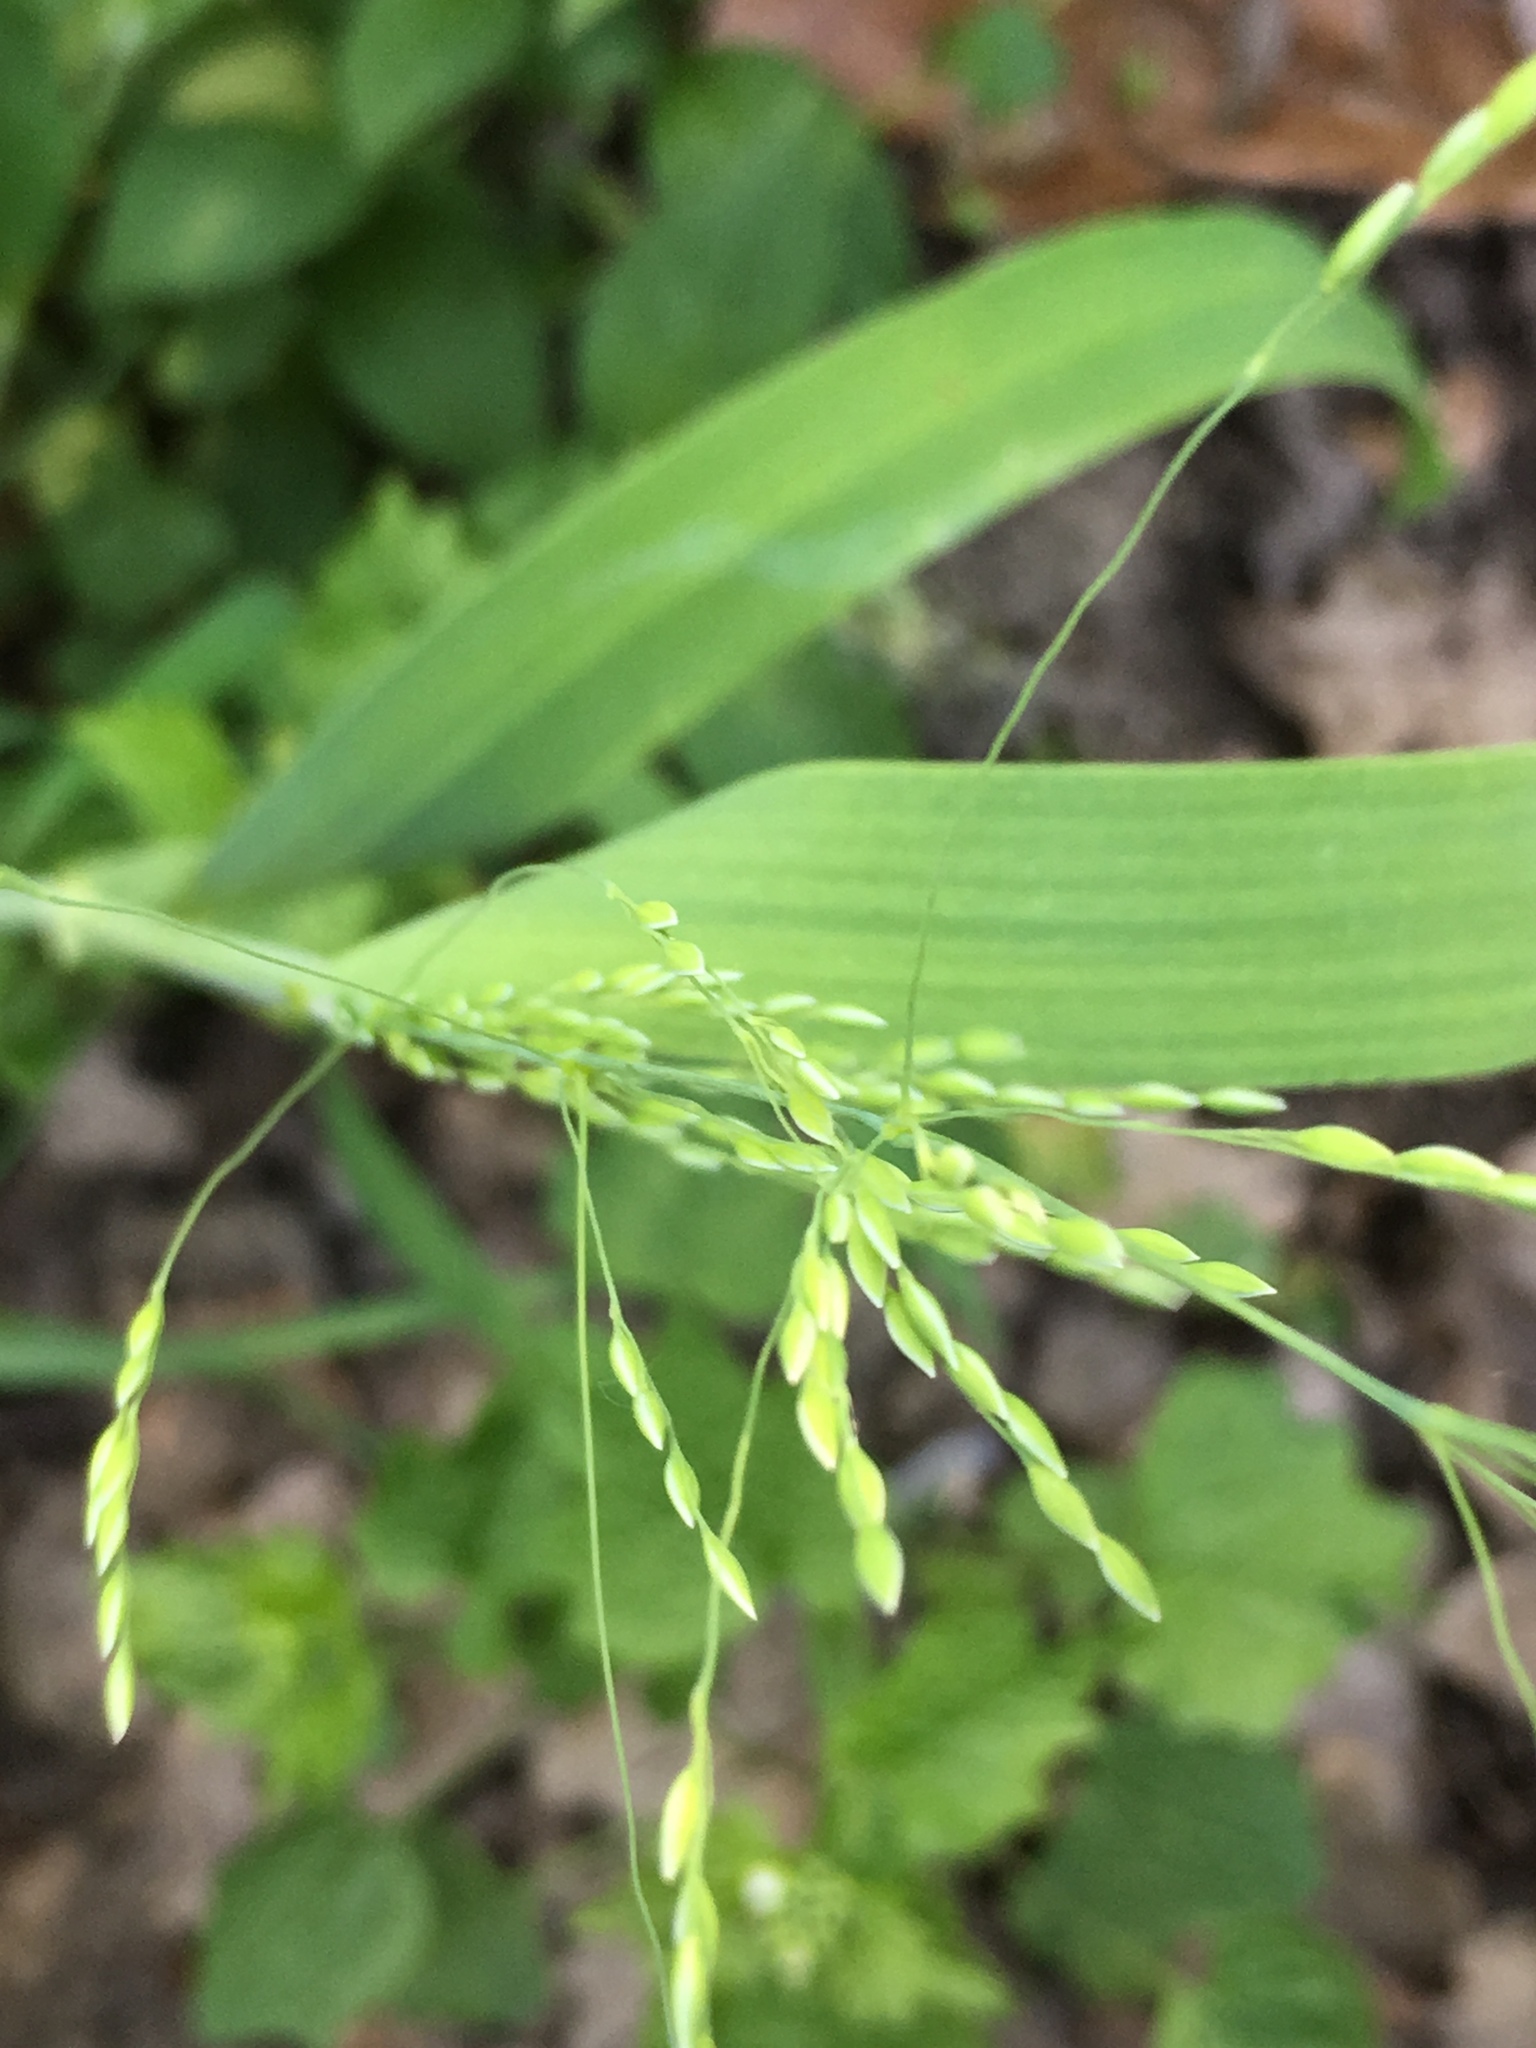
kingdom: Plantae
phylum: Tracheophyta
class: Liliopsida
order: Poales
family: Poaceae
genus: Milium
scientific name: Milium effusum
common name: Wood millet
